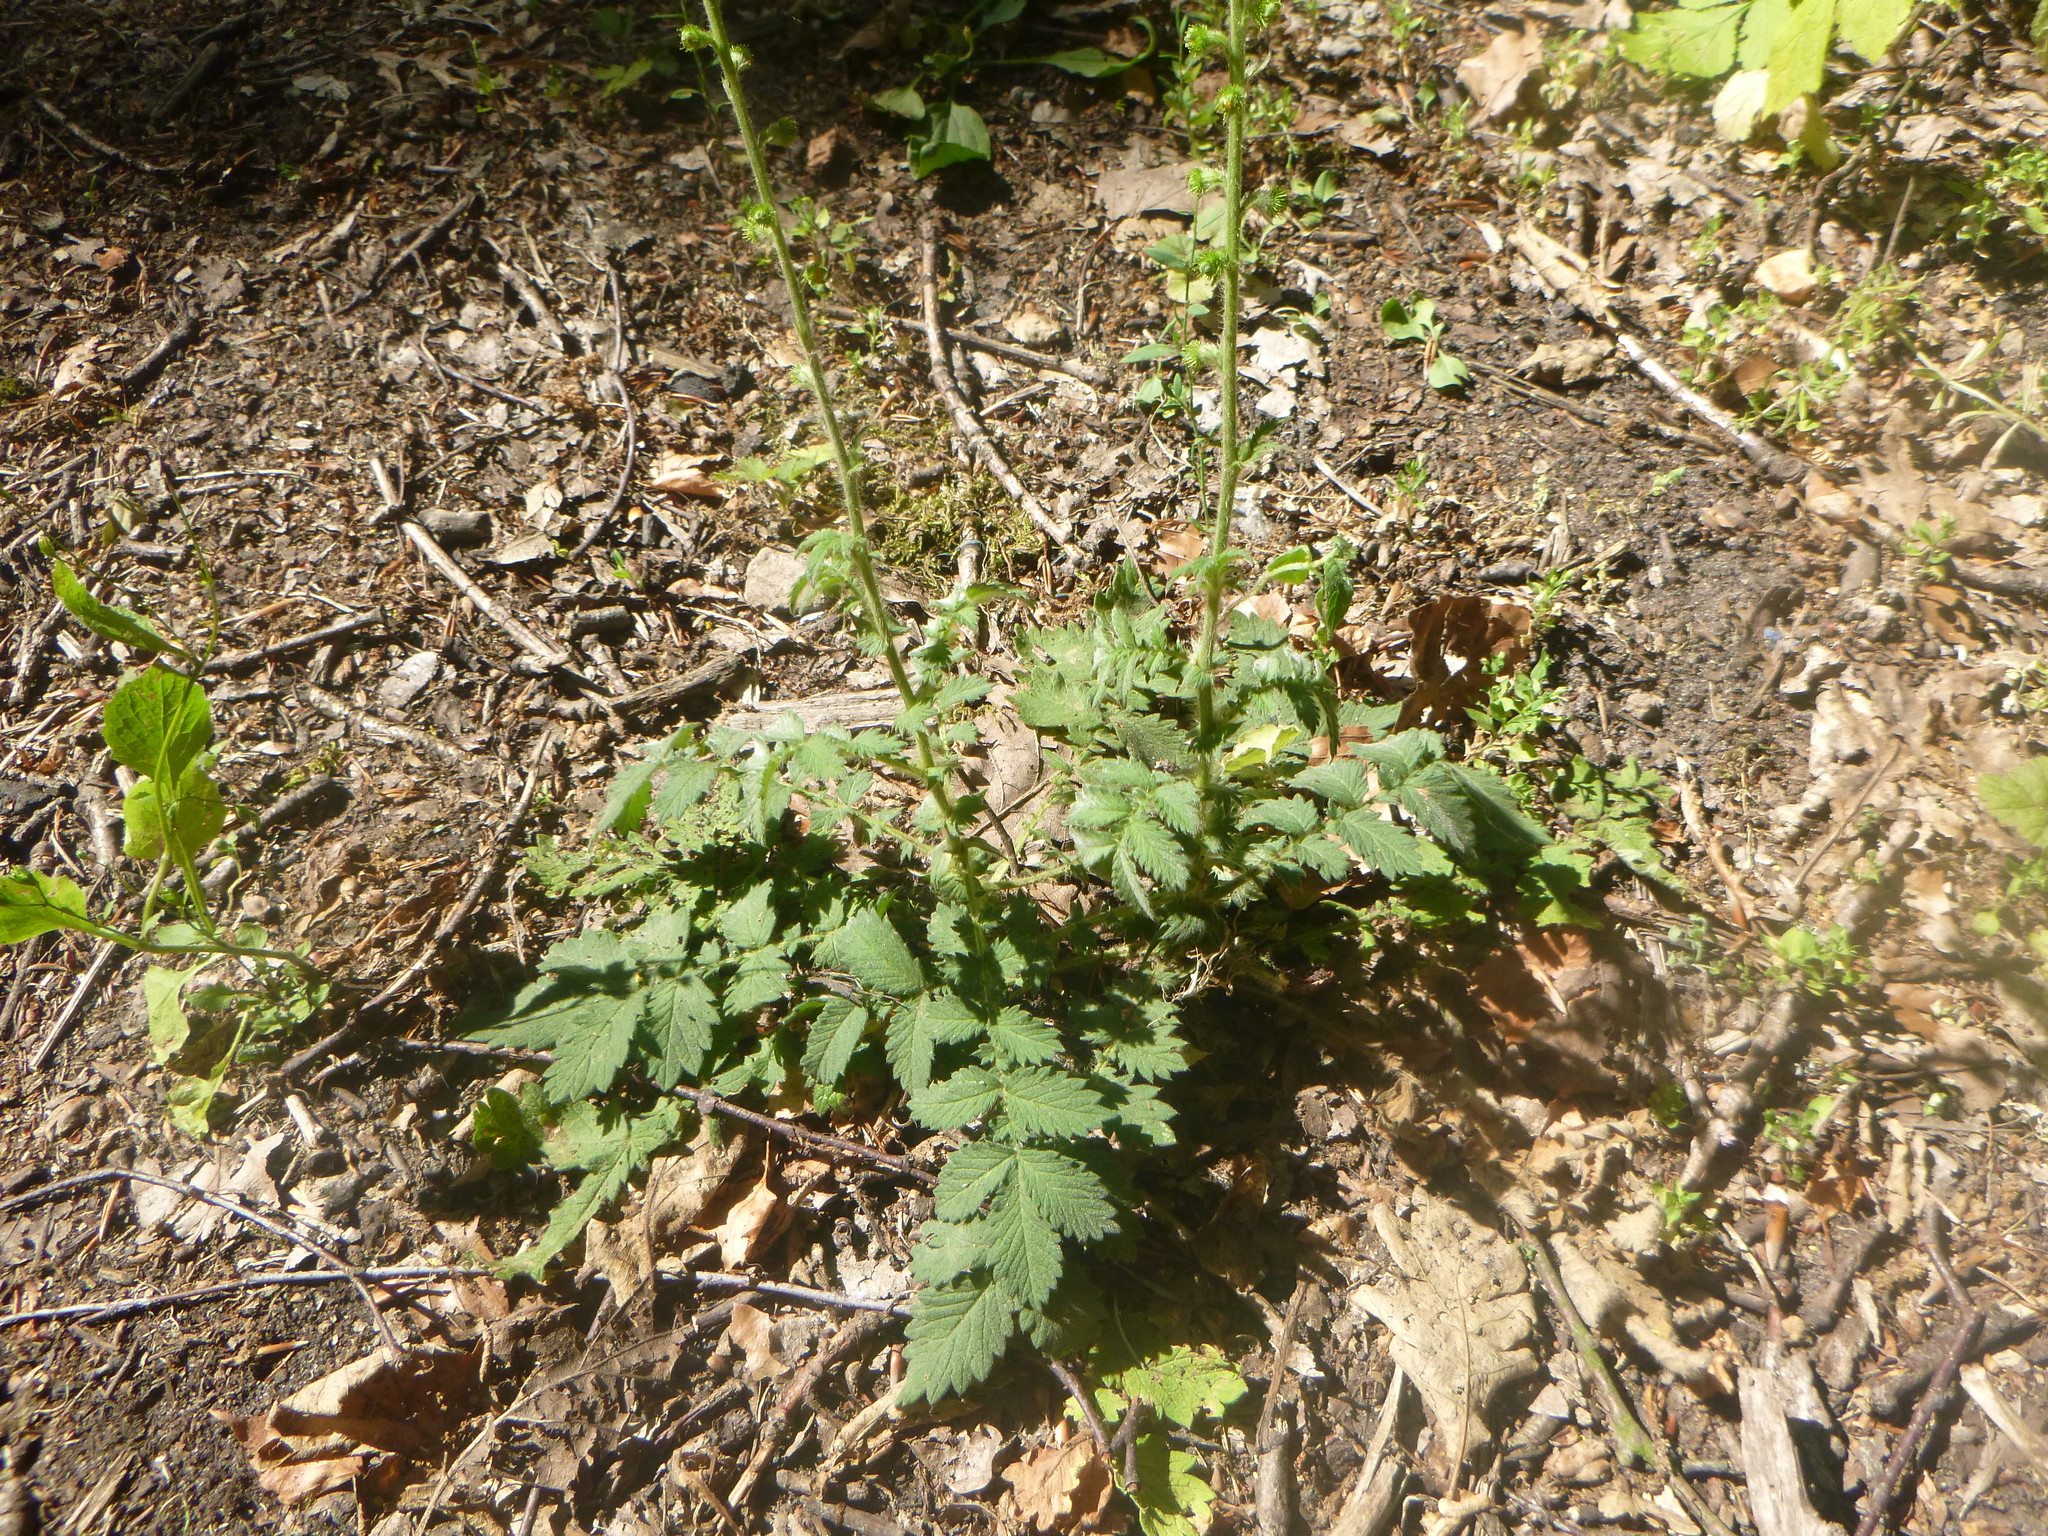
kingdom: Plantae
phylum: Tracheophyta
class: Magnoliopsida
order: Rosales
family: Rosaceae
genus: Agrimonia
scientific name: Agrimonia eupatoria
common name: Agrimony
